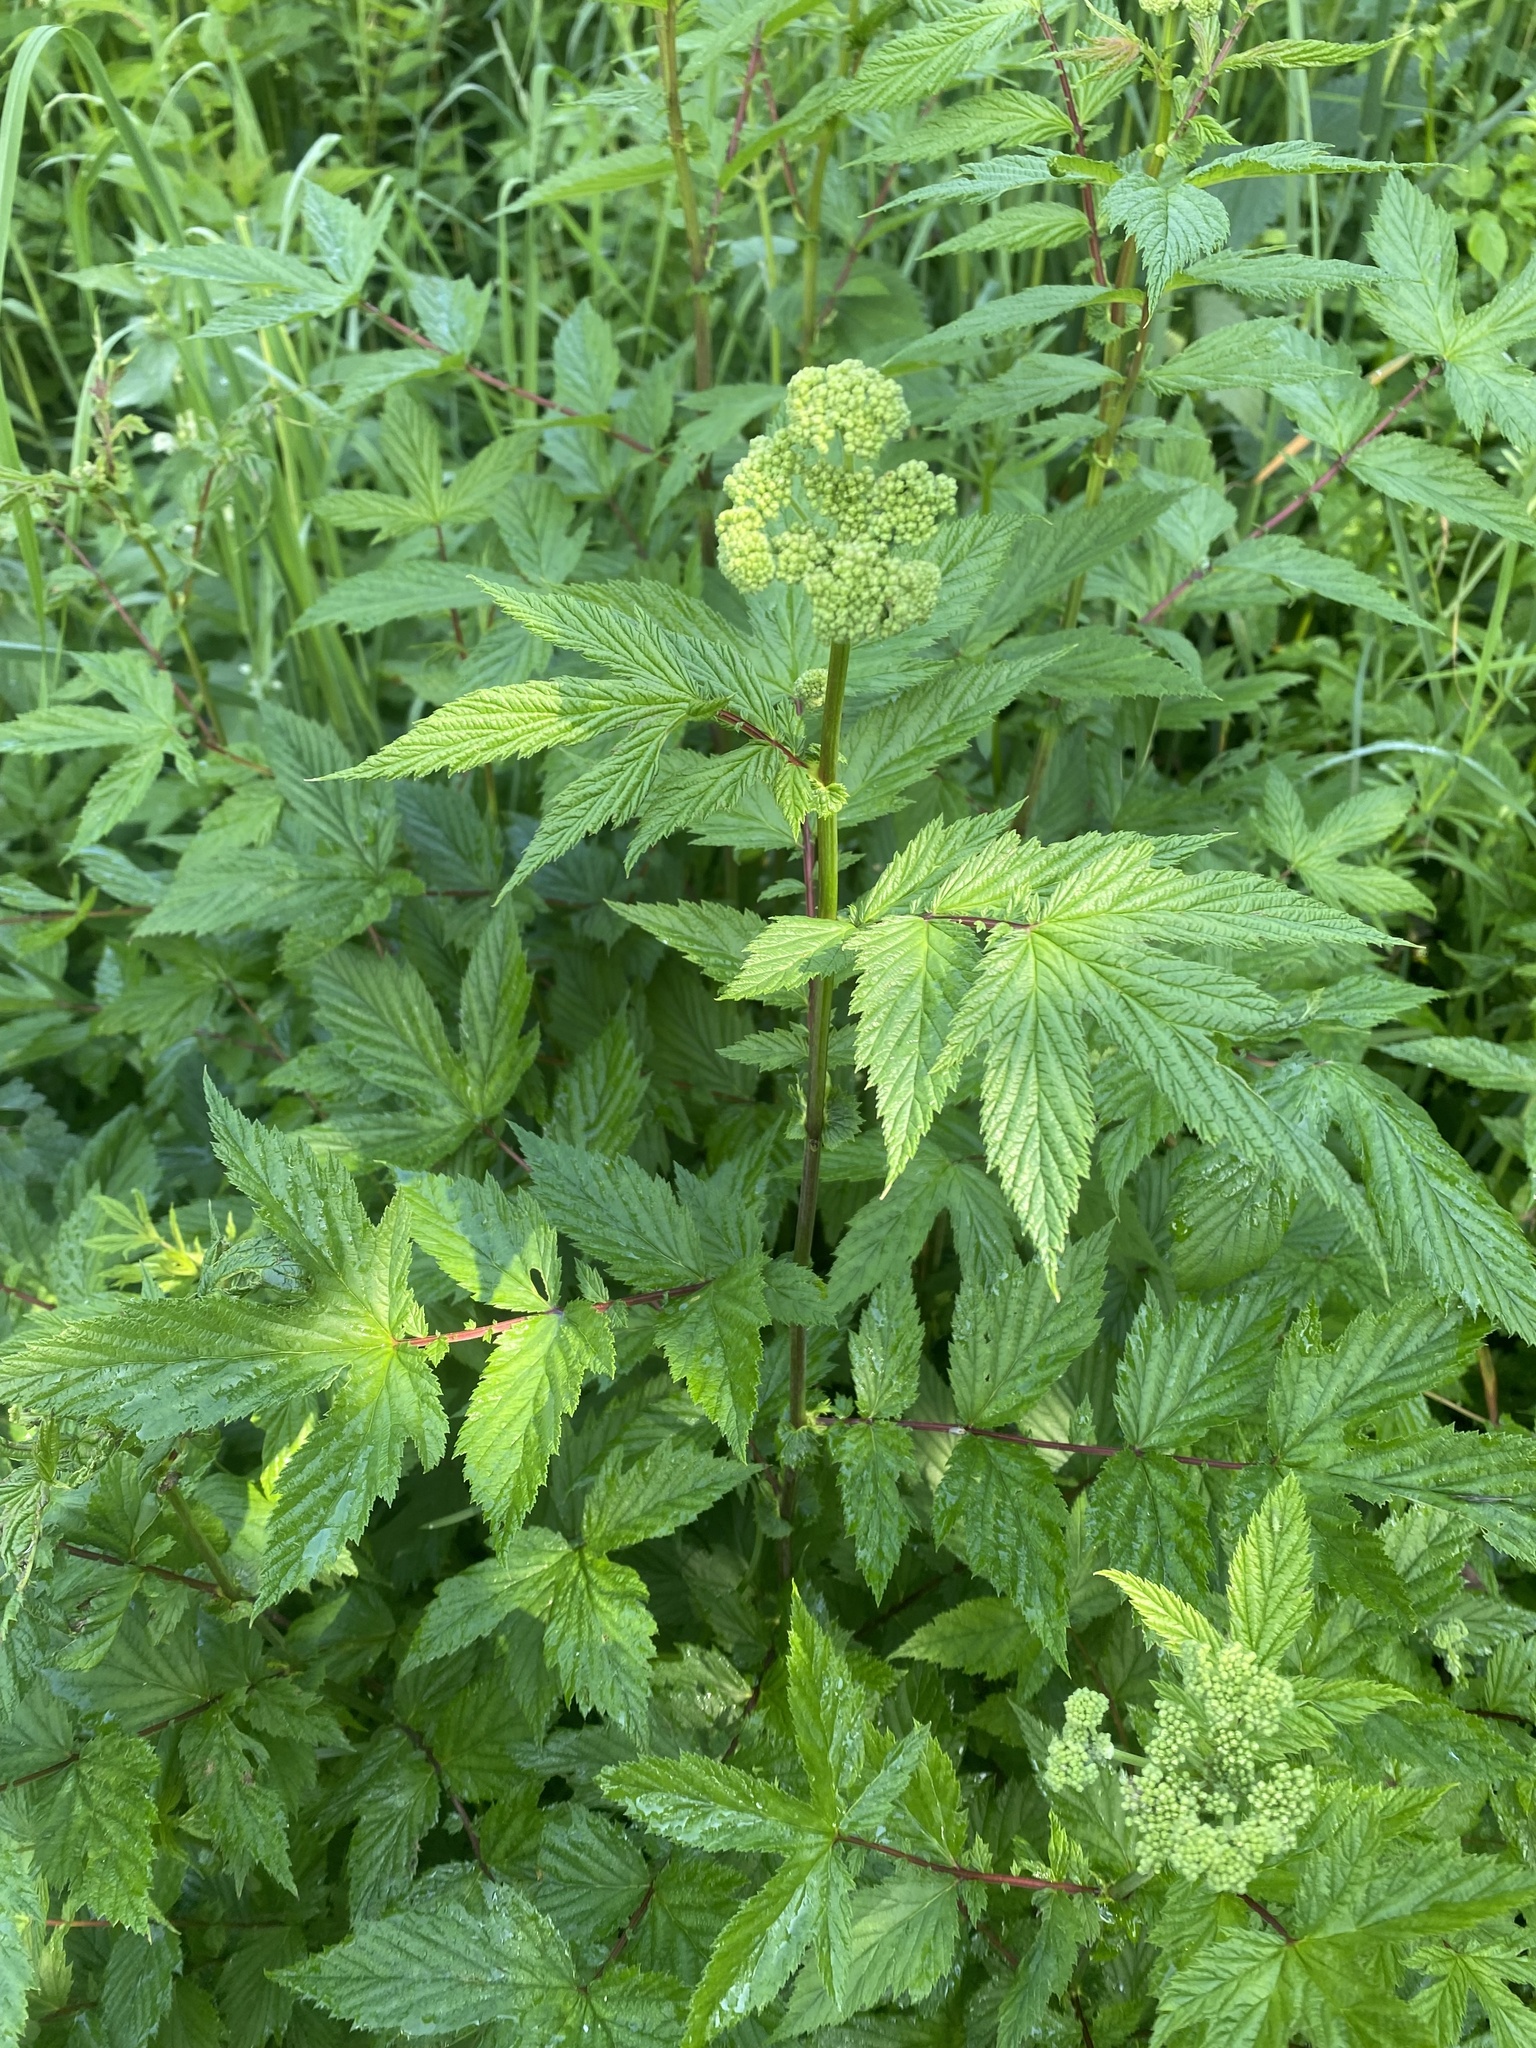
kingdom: Plantae
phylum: Tracheophyta
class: Magnoliopsida
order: Rosales
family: Rosaceae
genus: Filipendula
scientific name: Filipendula ulmaria
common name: Meadowsweet
